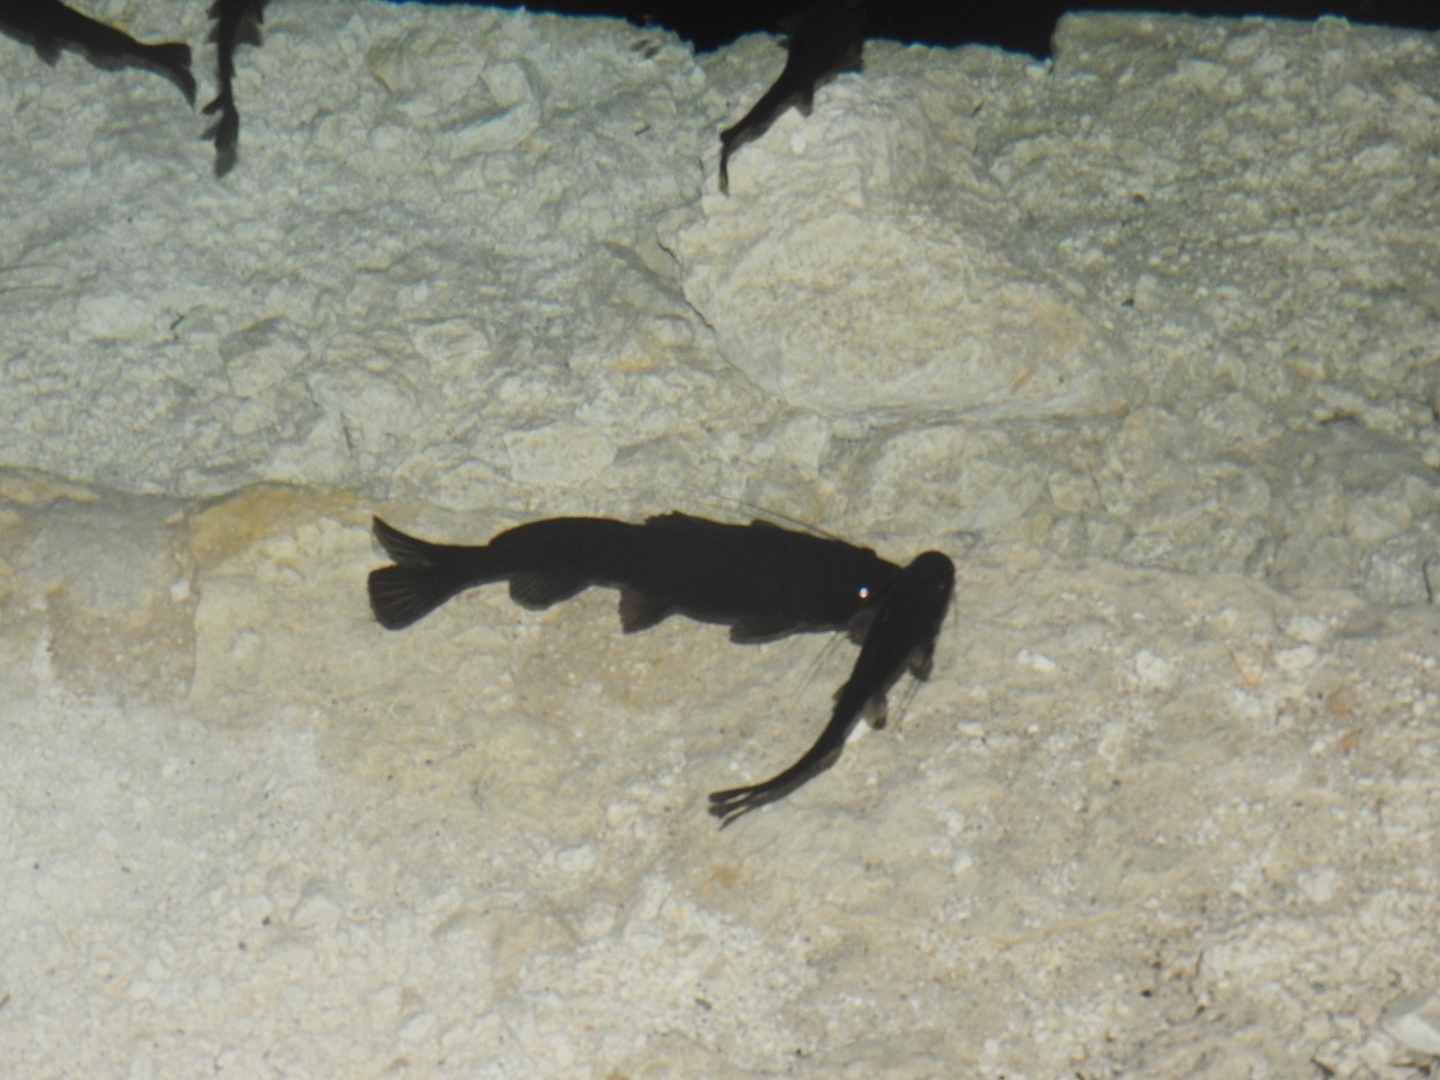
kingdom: Animalia
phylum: Chordata
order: Siluriformes
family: Heptapteridae
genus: Rhamdia
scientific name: Rhamdia guatemalensis
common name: Pale catfish
